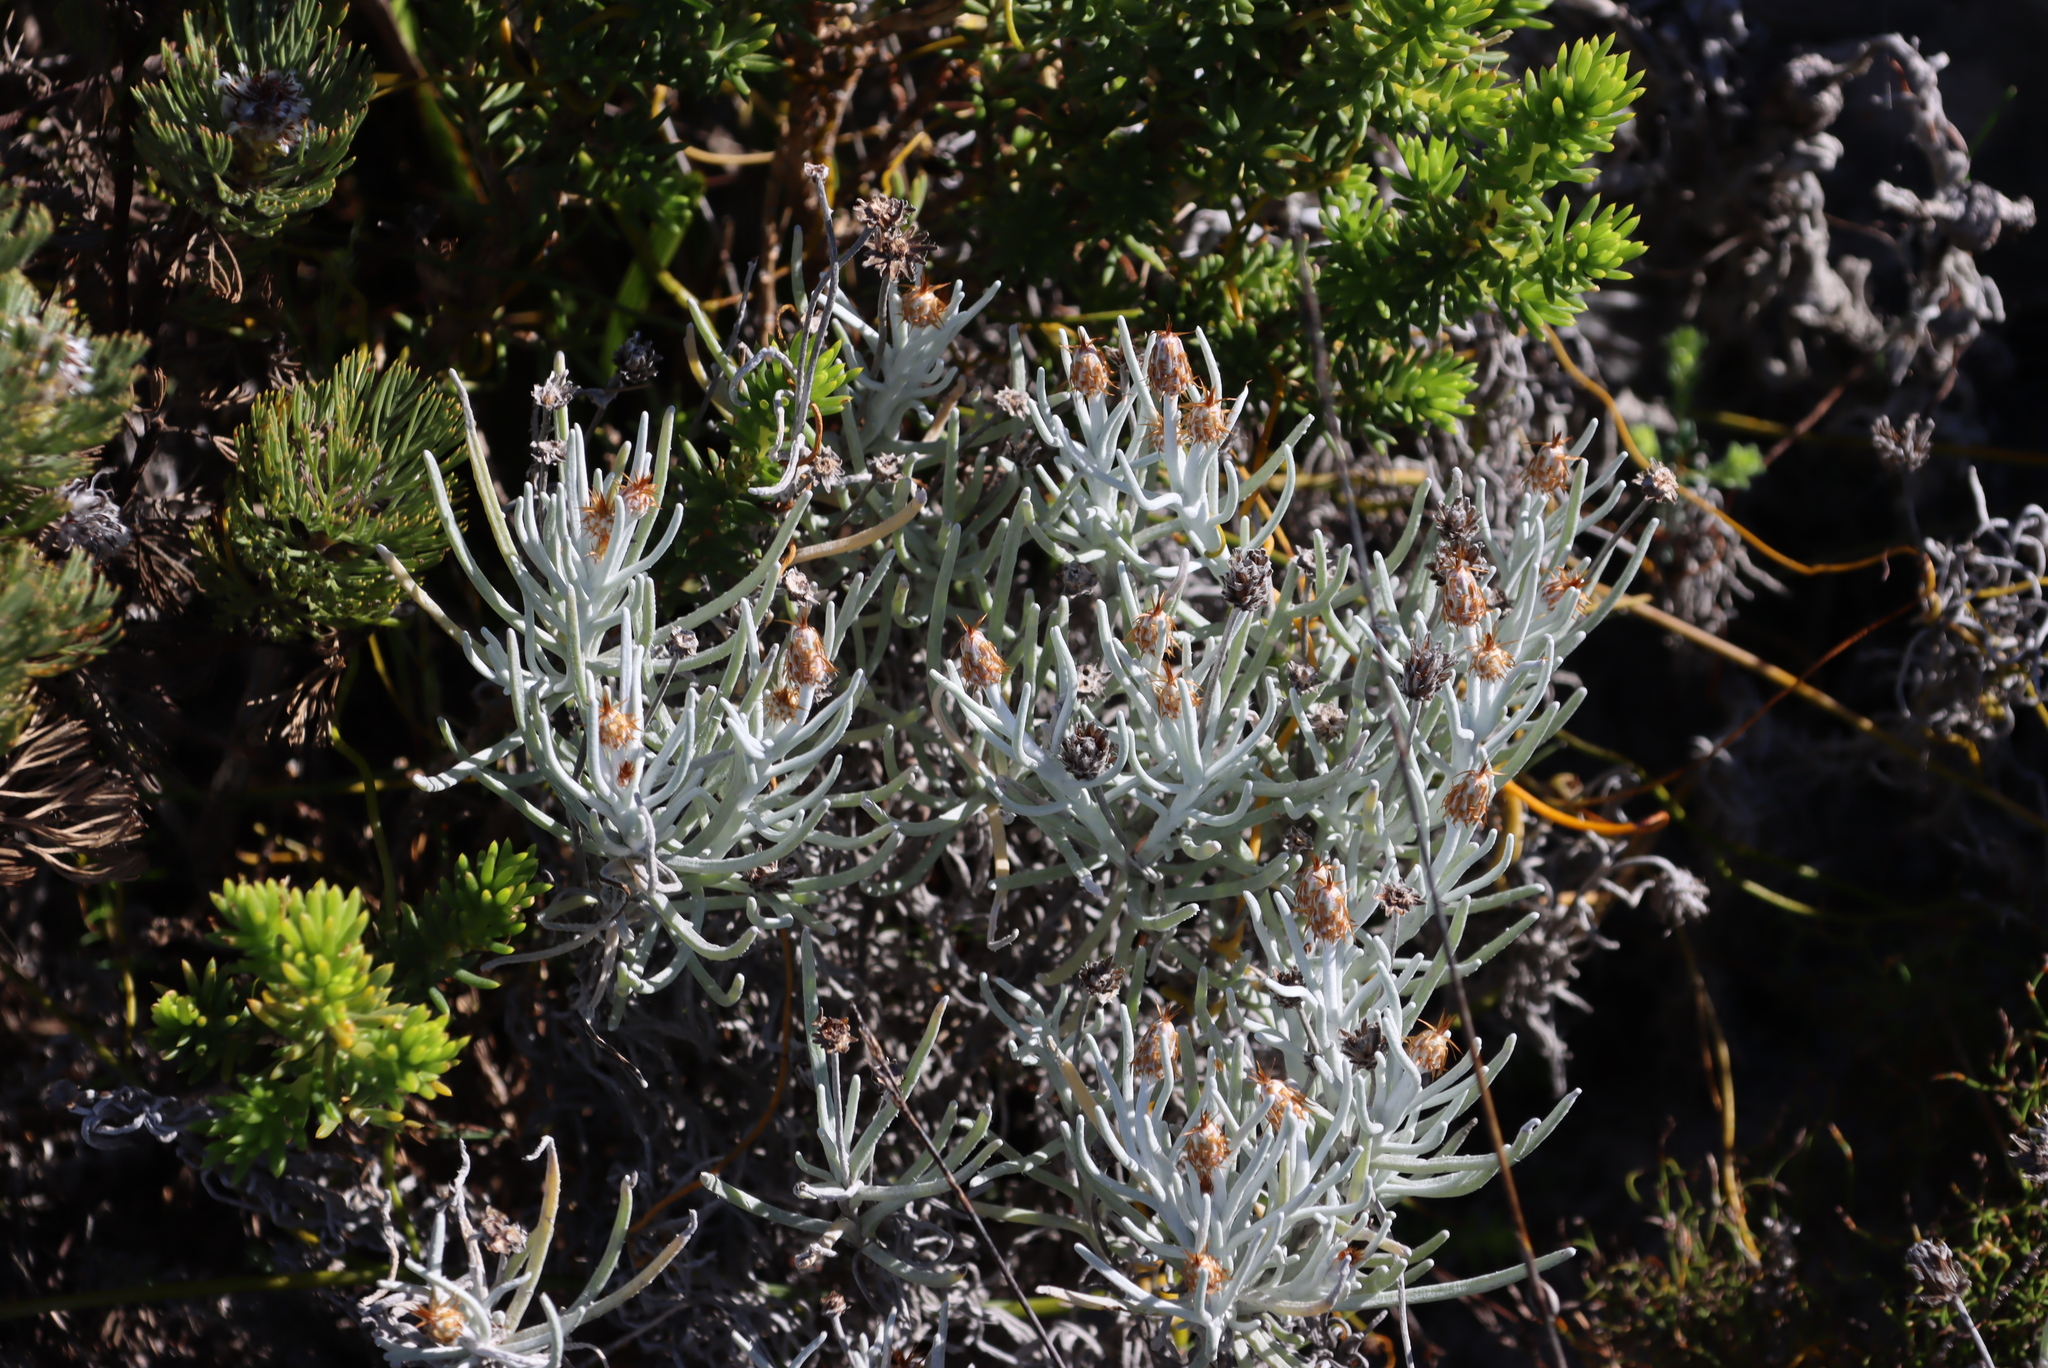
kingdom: Plantae
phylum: Tracheophyta
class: Magnoliopsida
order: Asterales
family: Asteraceae
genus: Syncarpha
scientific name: Syncarpha gnaphaloides
